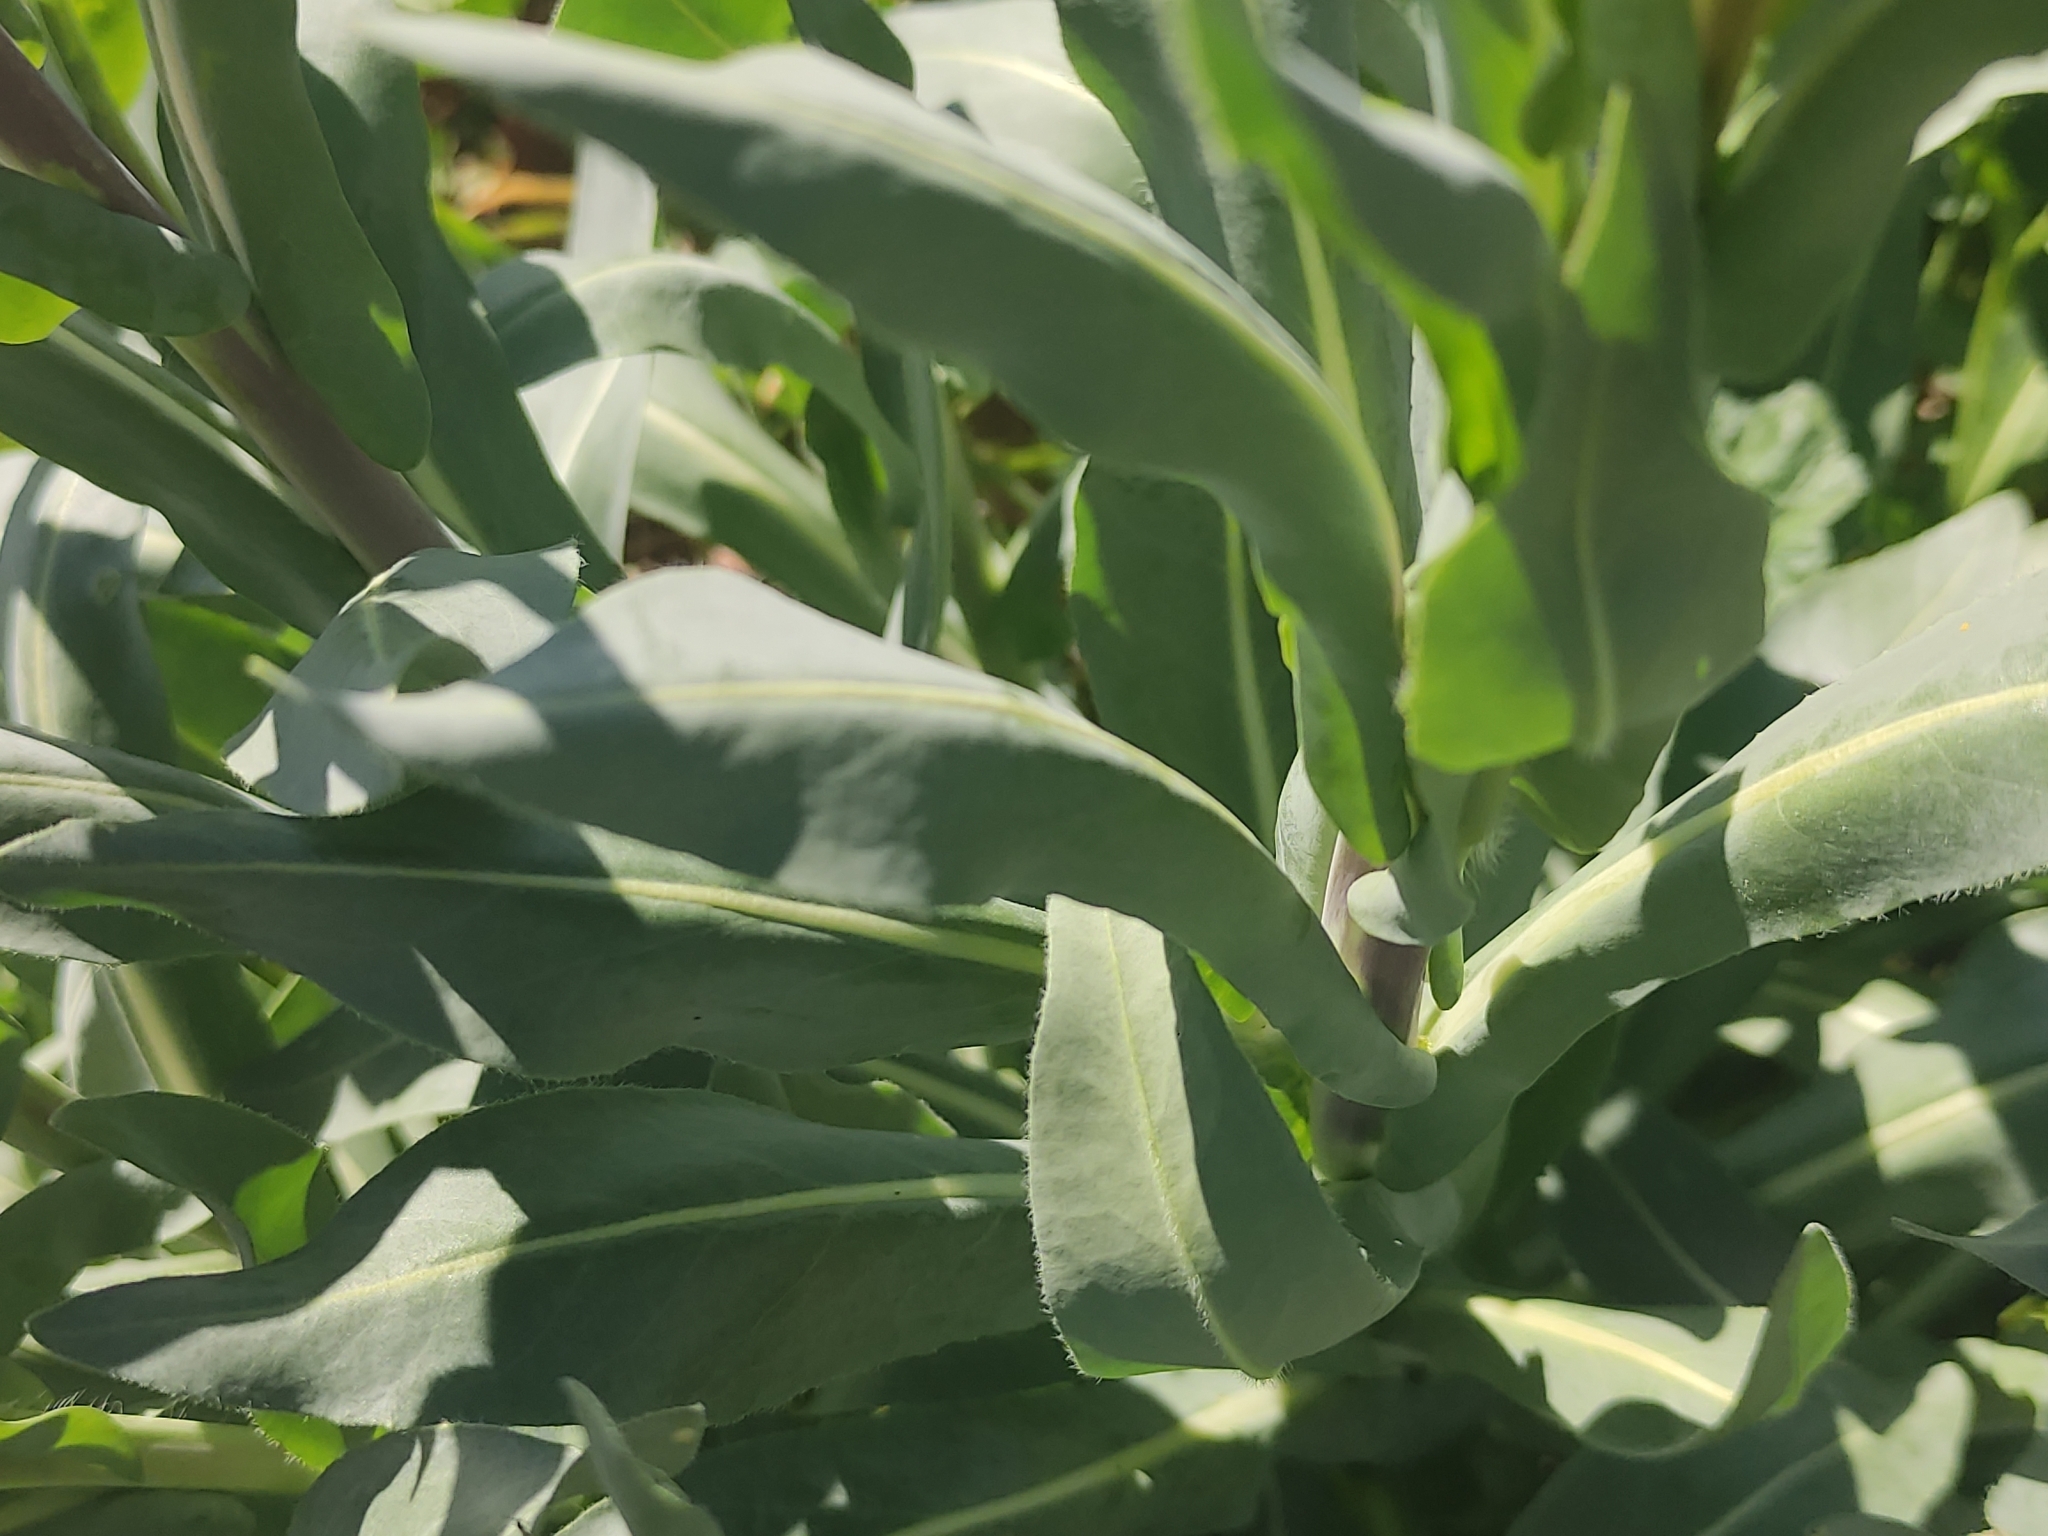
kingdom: Plantae
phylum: Tracheophyta
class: Magnoliopsida
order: Brassicales
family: Brassicaceae
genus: Isatis
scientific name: Isatis tinctoria
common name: Woad
